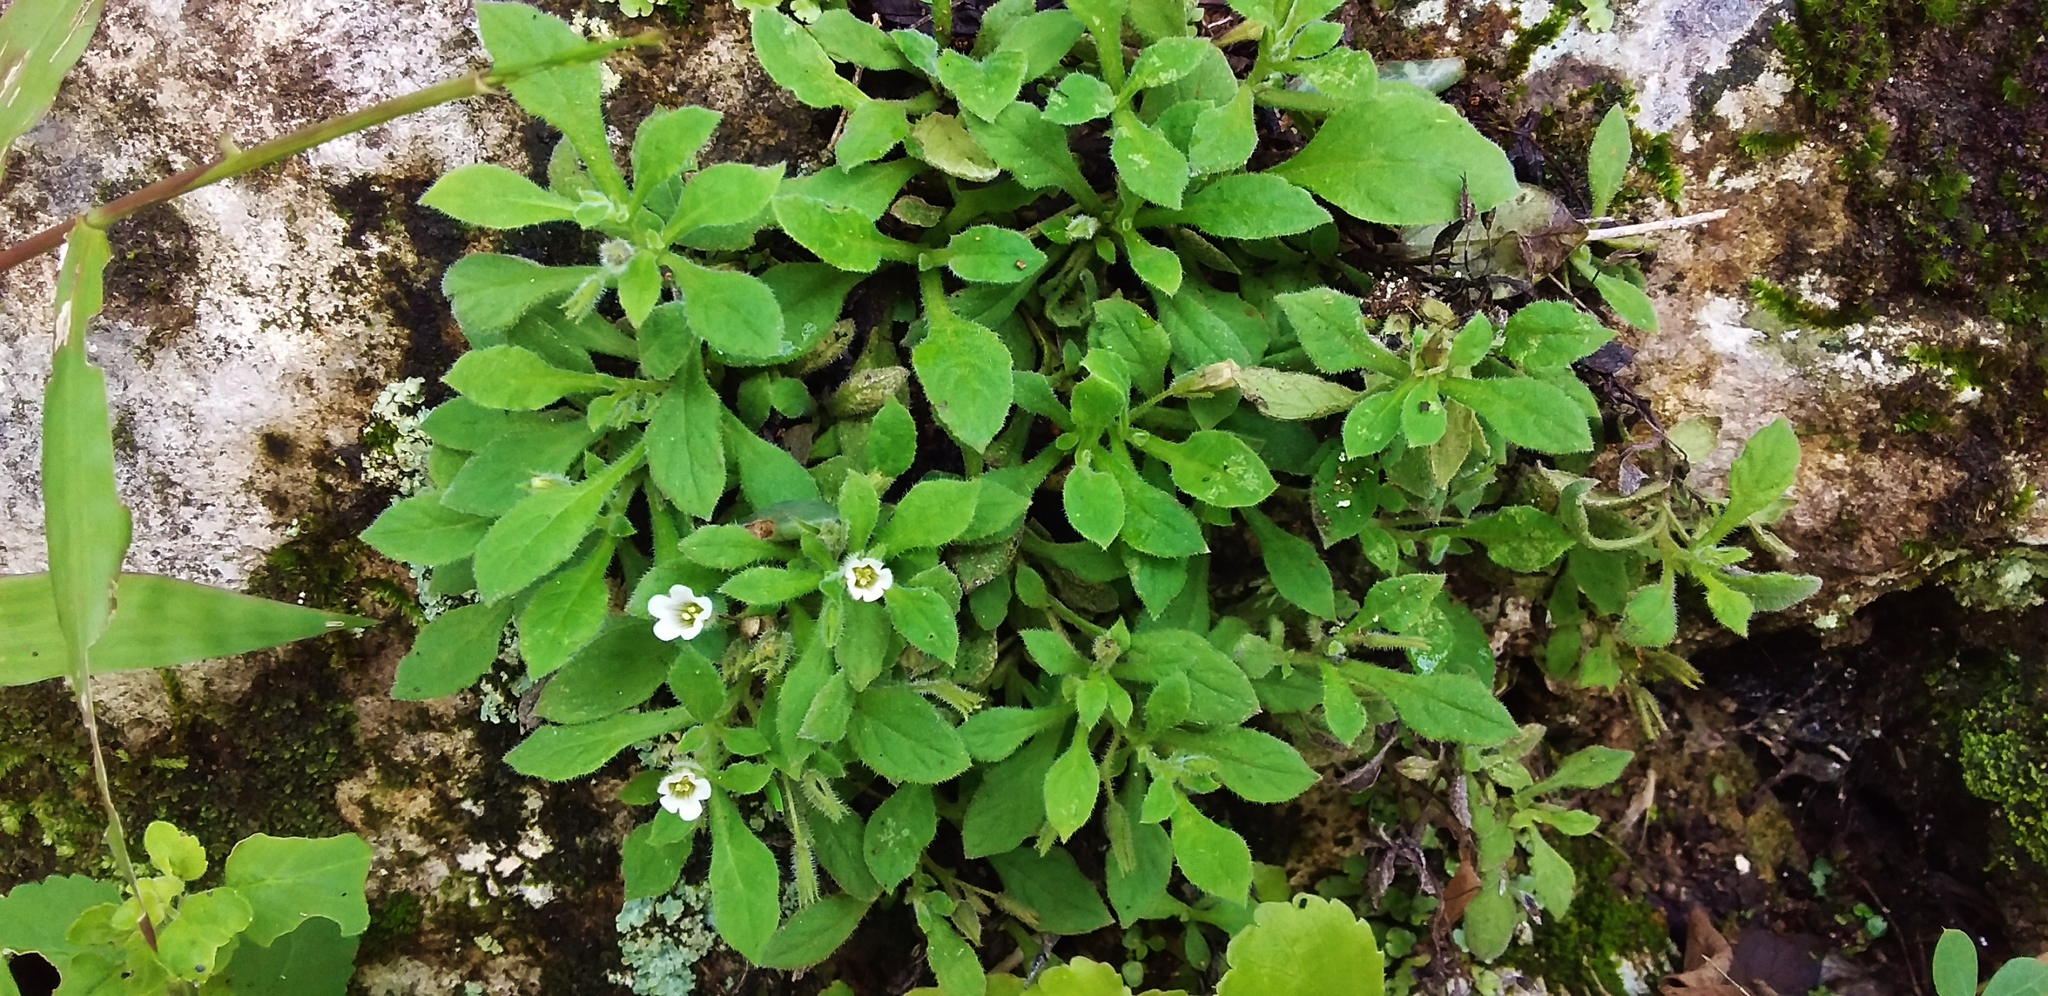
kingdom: Plantae
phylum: Tracheophyta
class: Magnoliopsida
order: Boraginales
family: Namaceae
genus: Nama
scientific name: Nama jamaicensis
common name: Jamaicanweed
